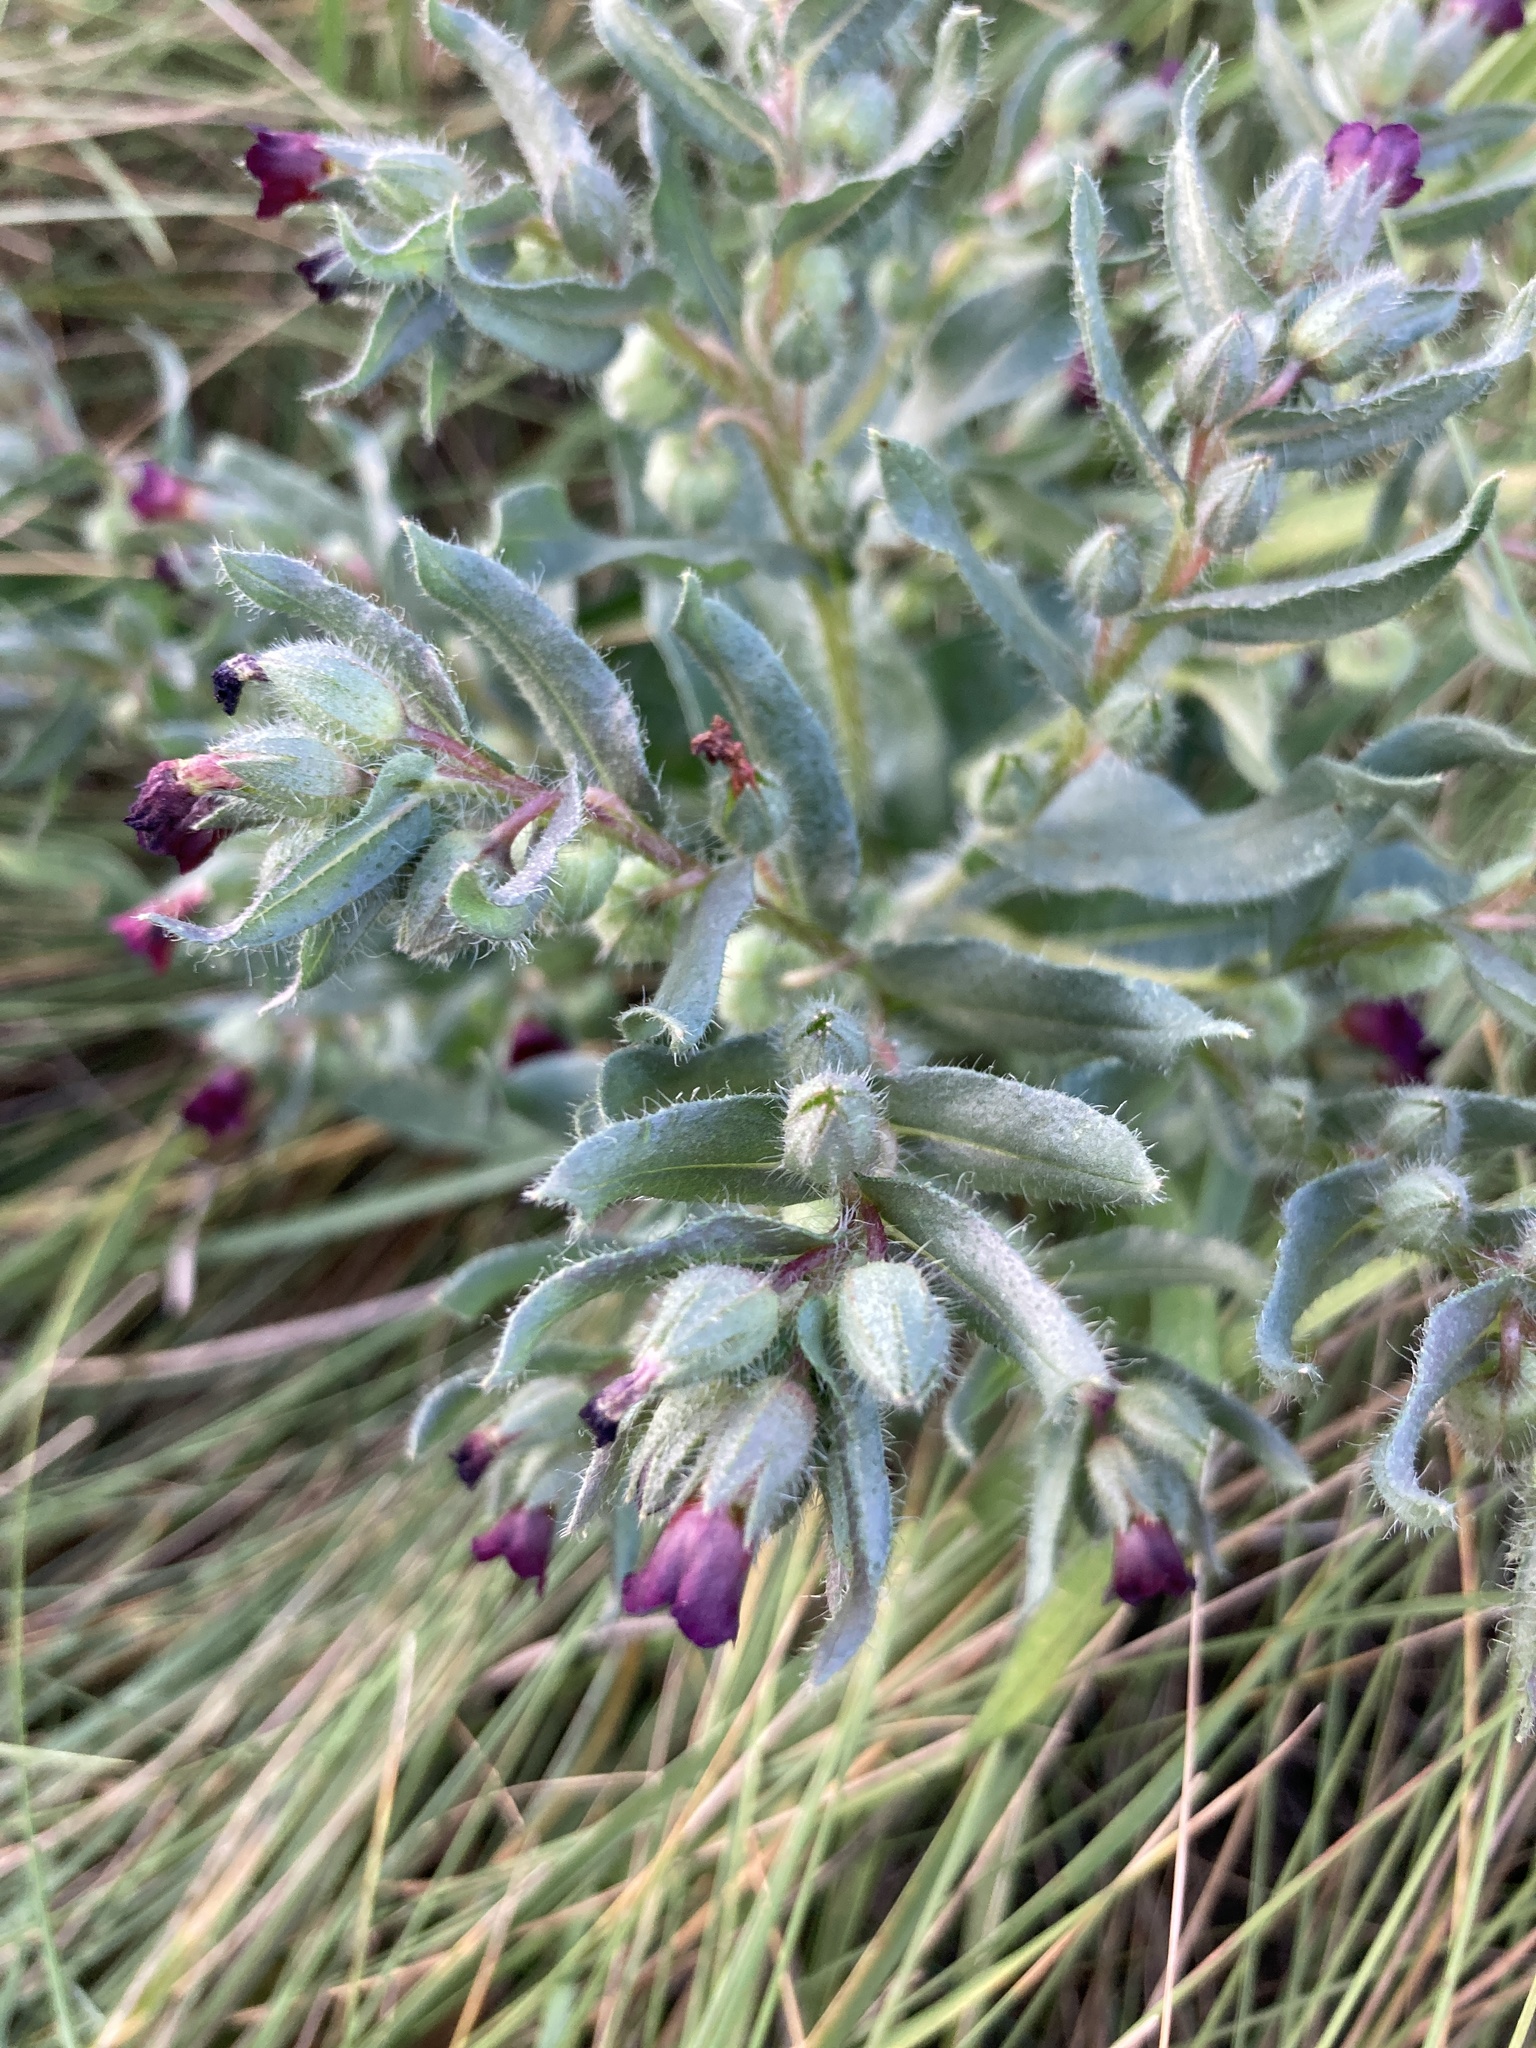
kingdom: Plantae
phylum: Tracheophyta
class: Magnoliopsida
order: Boraginales
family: Boraginaceae
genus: Nonea
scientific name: Nonea pulla
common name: Brown nonea
